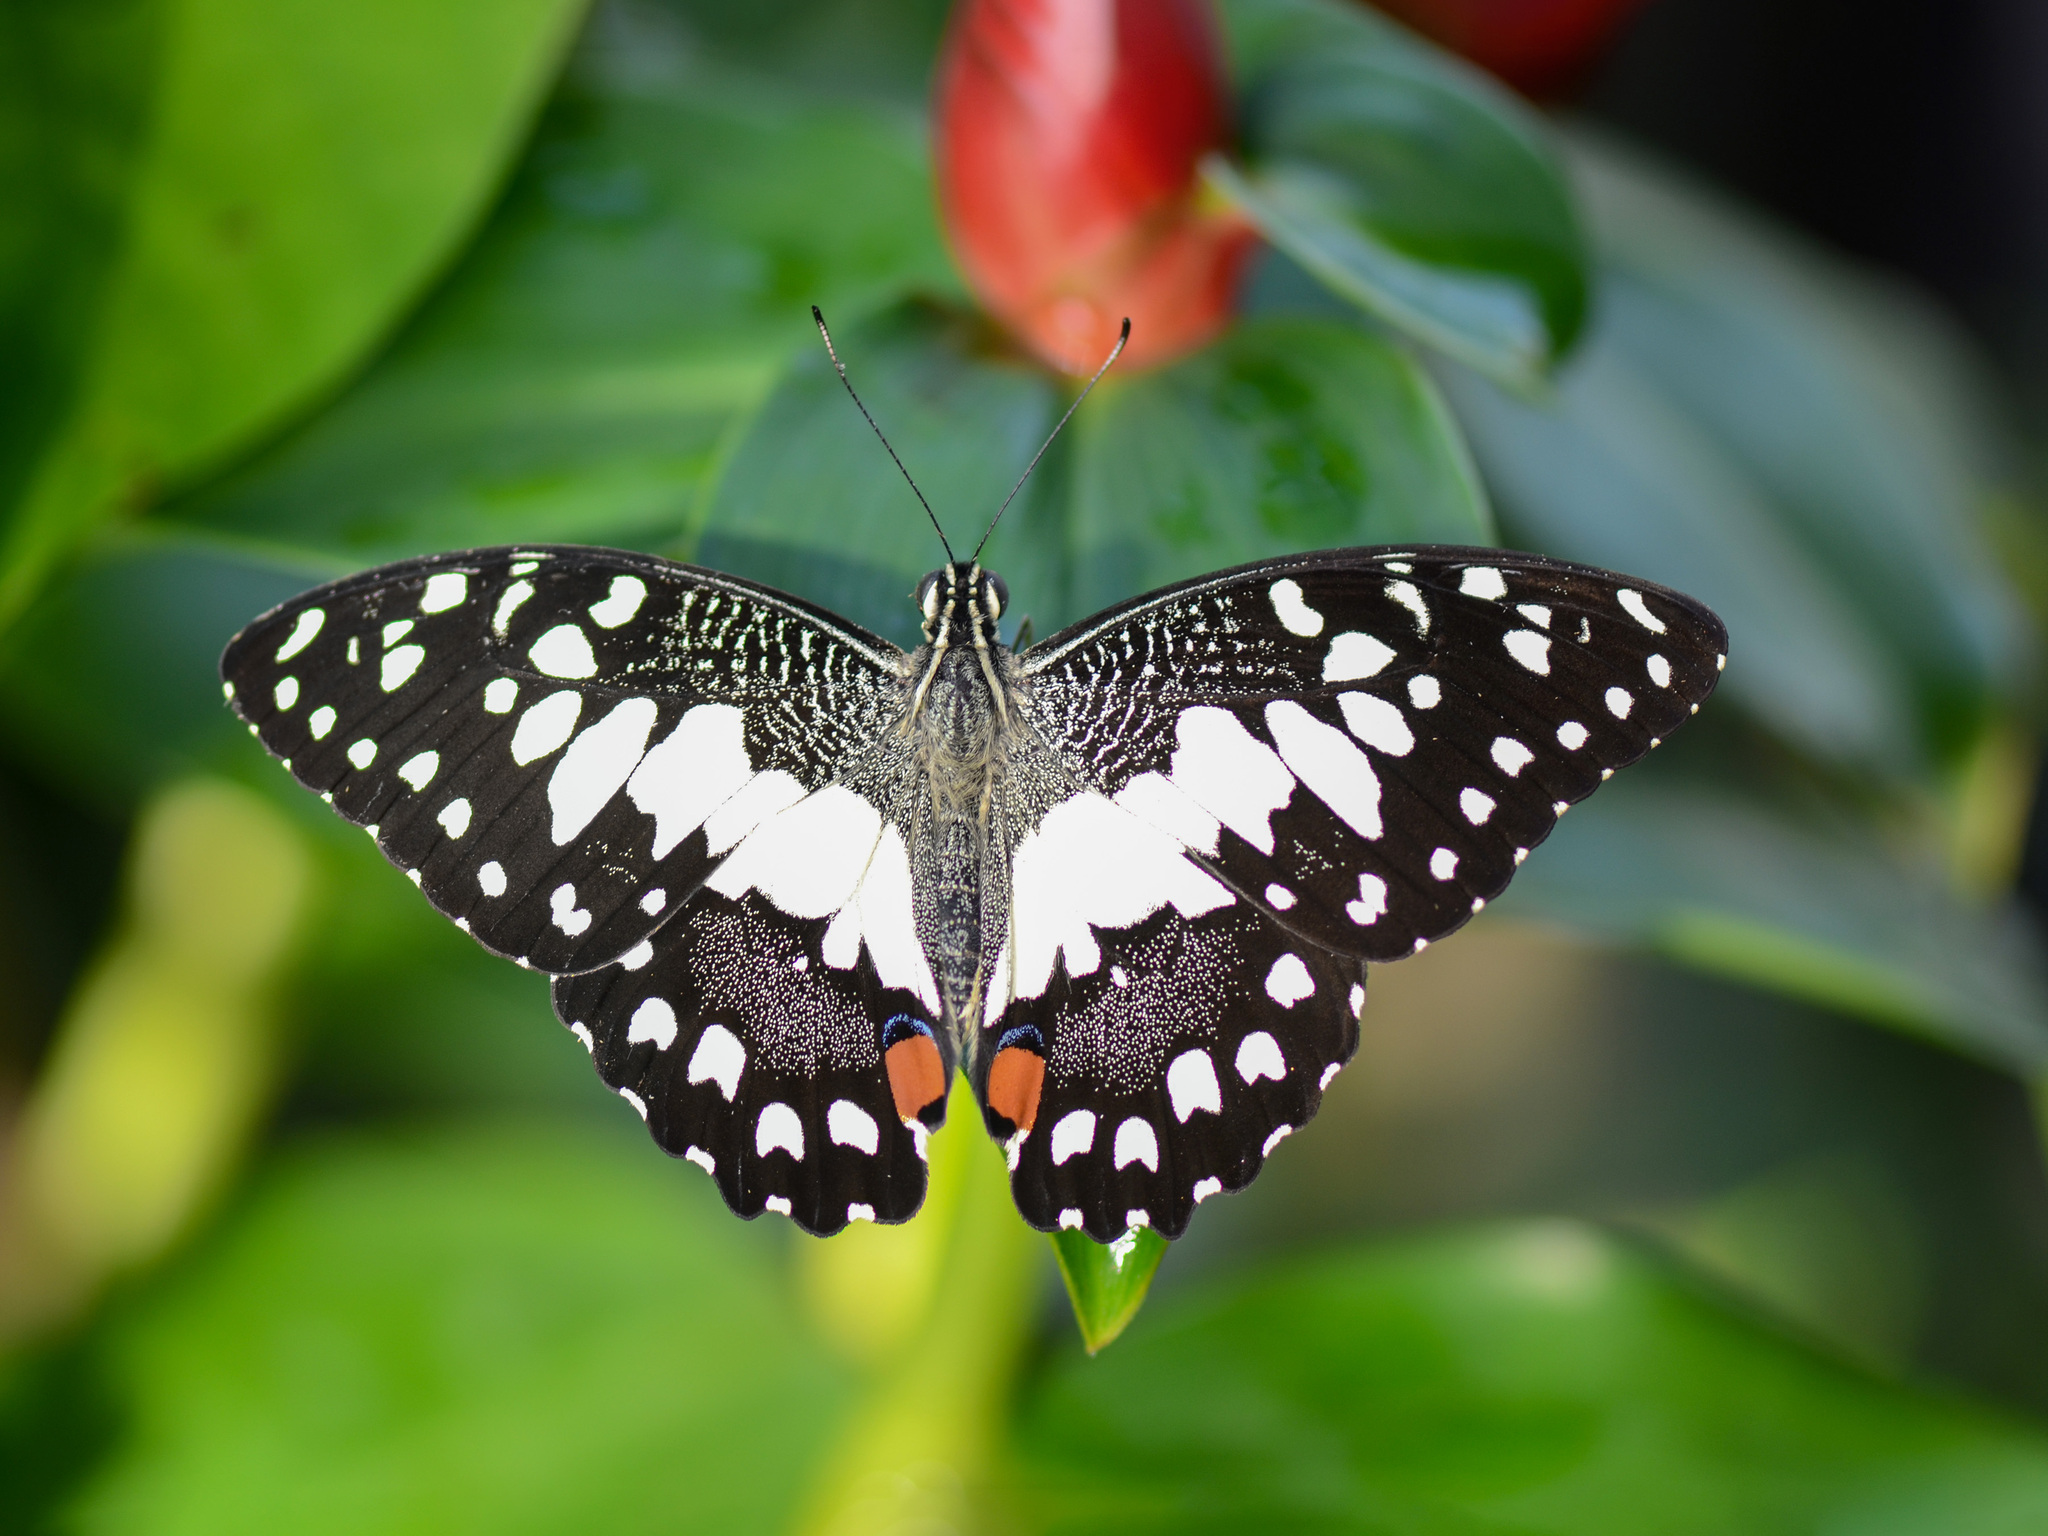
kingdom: Animalia
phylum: Arthropoda
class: Insecta
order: Lepidoptera
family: Papilionidae
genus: Papilio
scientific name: Papilio demoleus
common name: Lime butterfly
